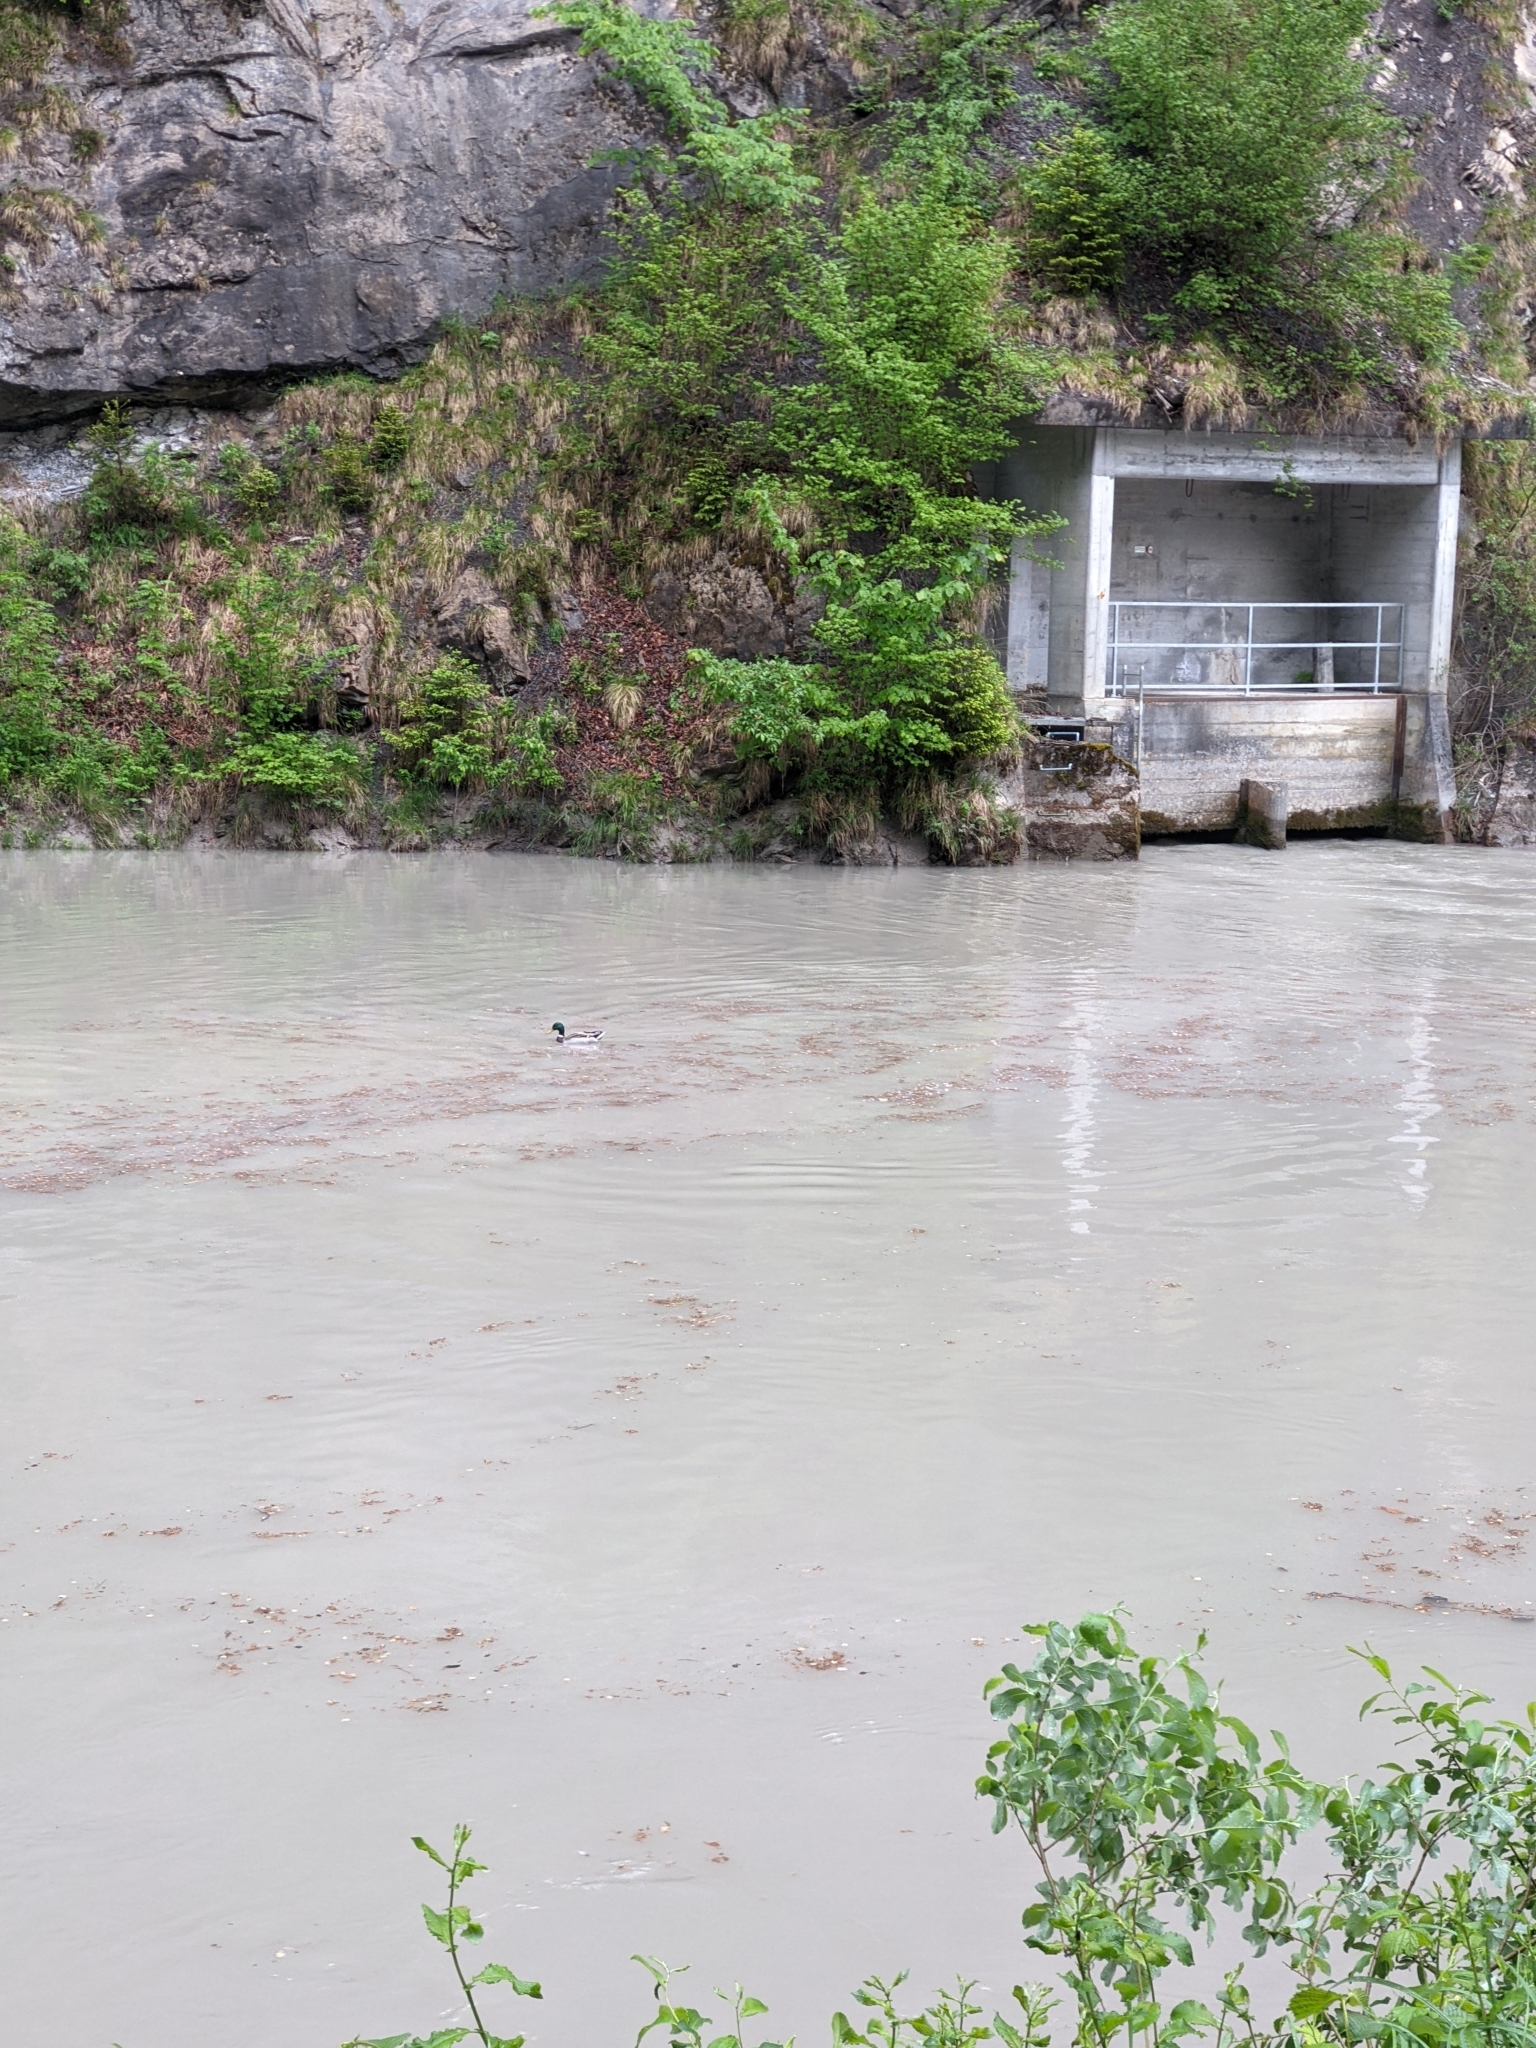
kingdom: Animalia
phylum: Chordata
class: Aves
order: Anseriformes
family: Anatidae
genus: Anas
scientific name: Anas platyrhynchos
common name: Mallard
